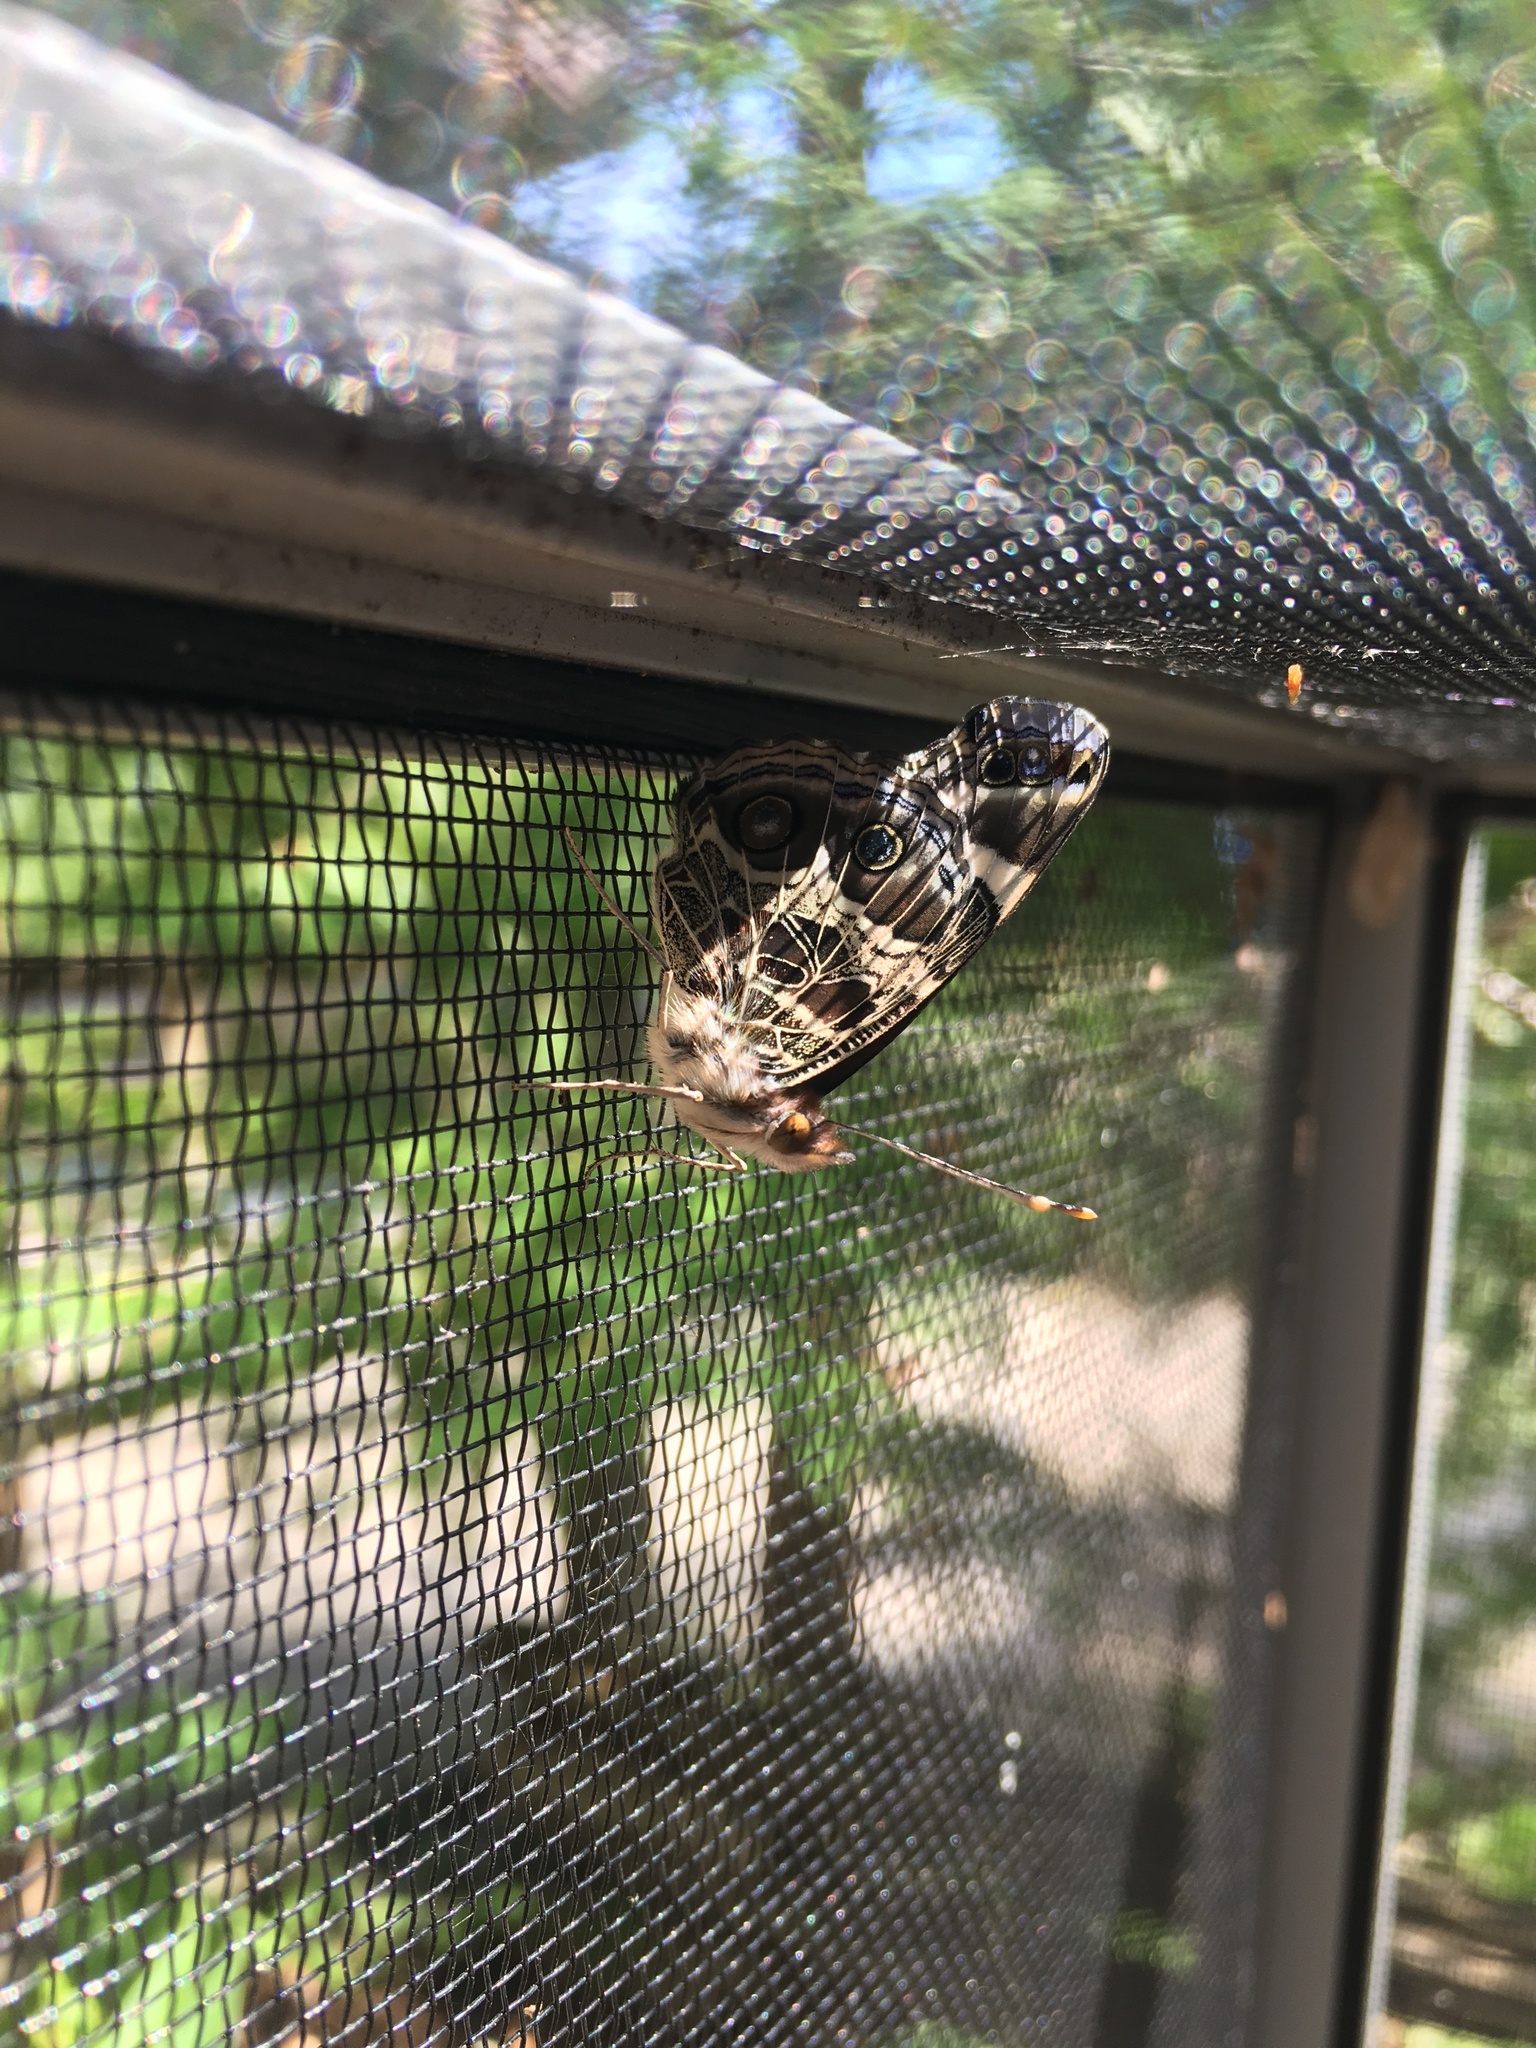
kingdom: Animalia
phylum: Arthropoda
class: Insecta
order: Lepidoptera
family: Nymphalidae
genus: Vanessa
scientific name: Vanessa virginiensis
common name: American lady
